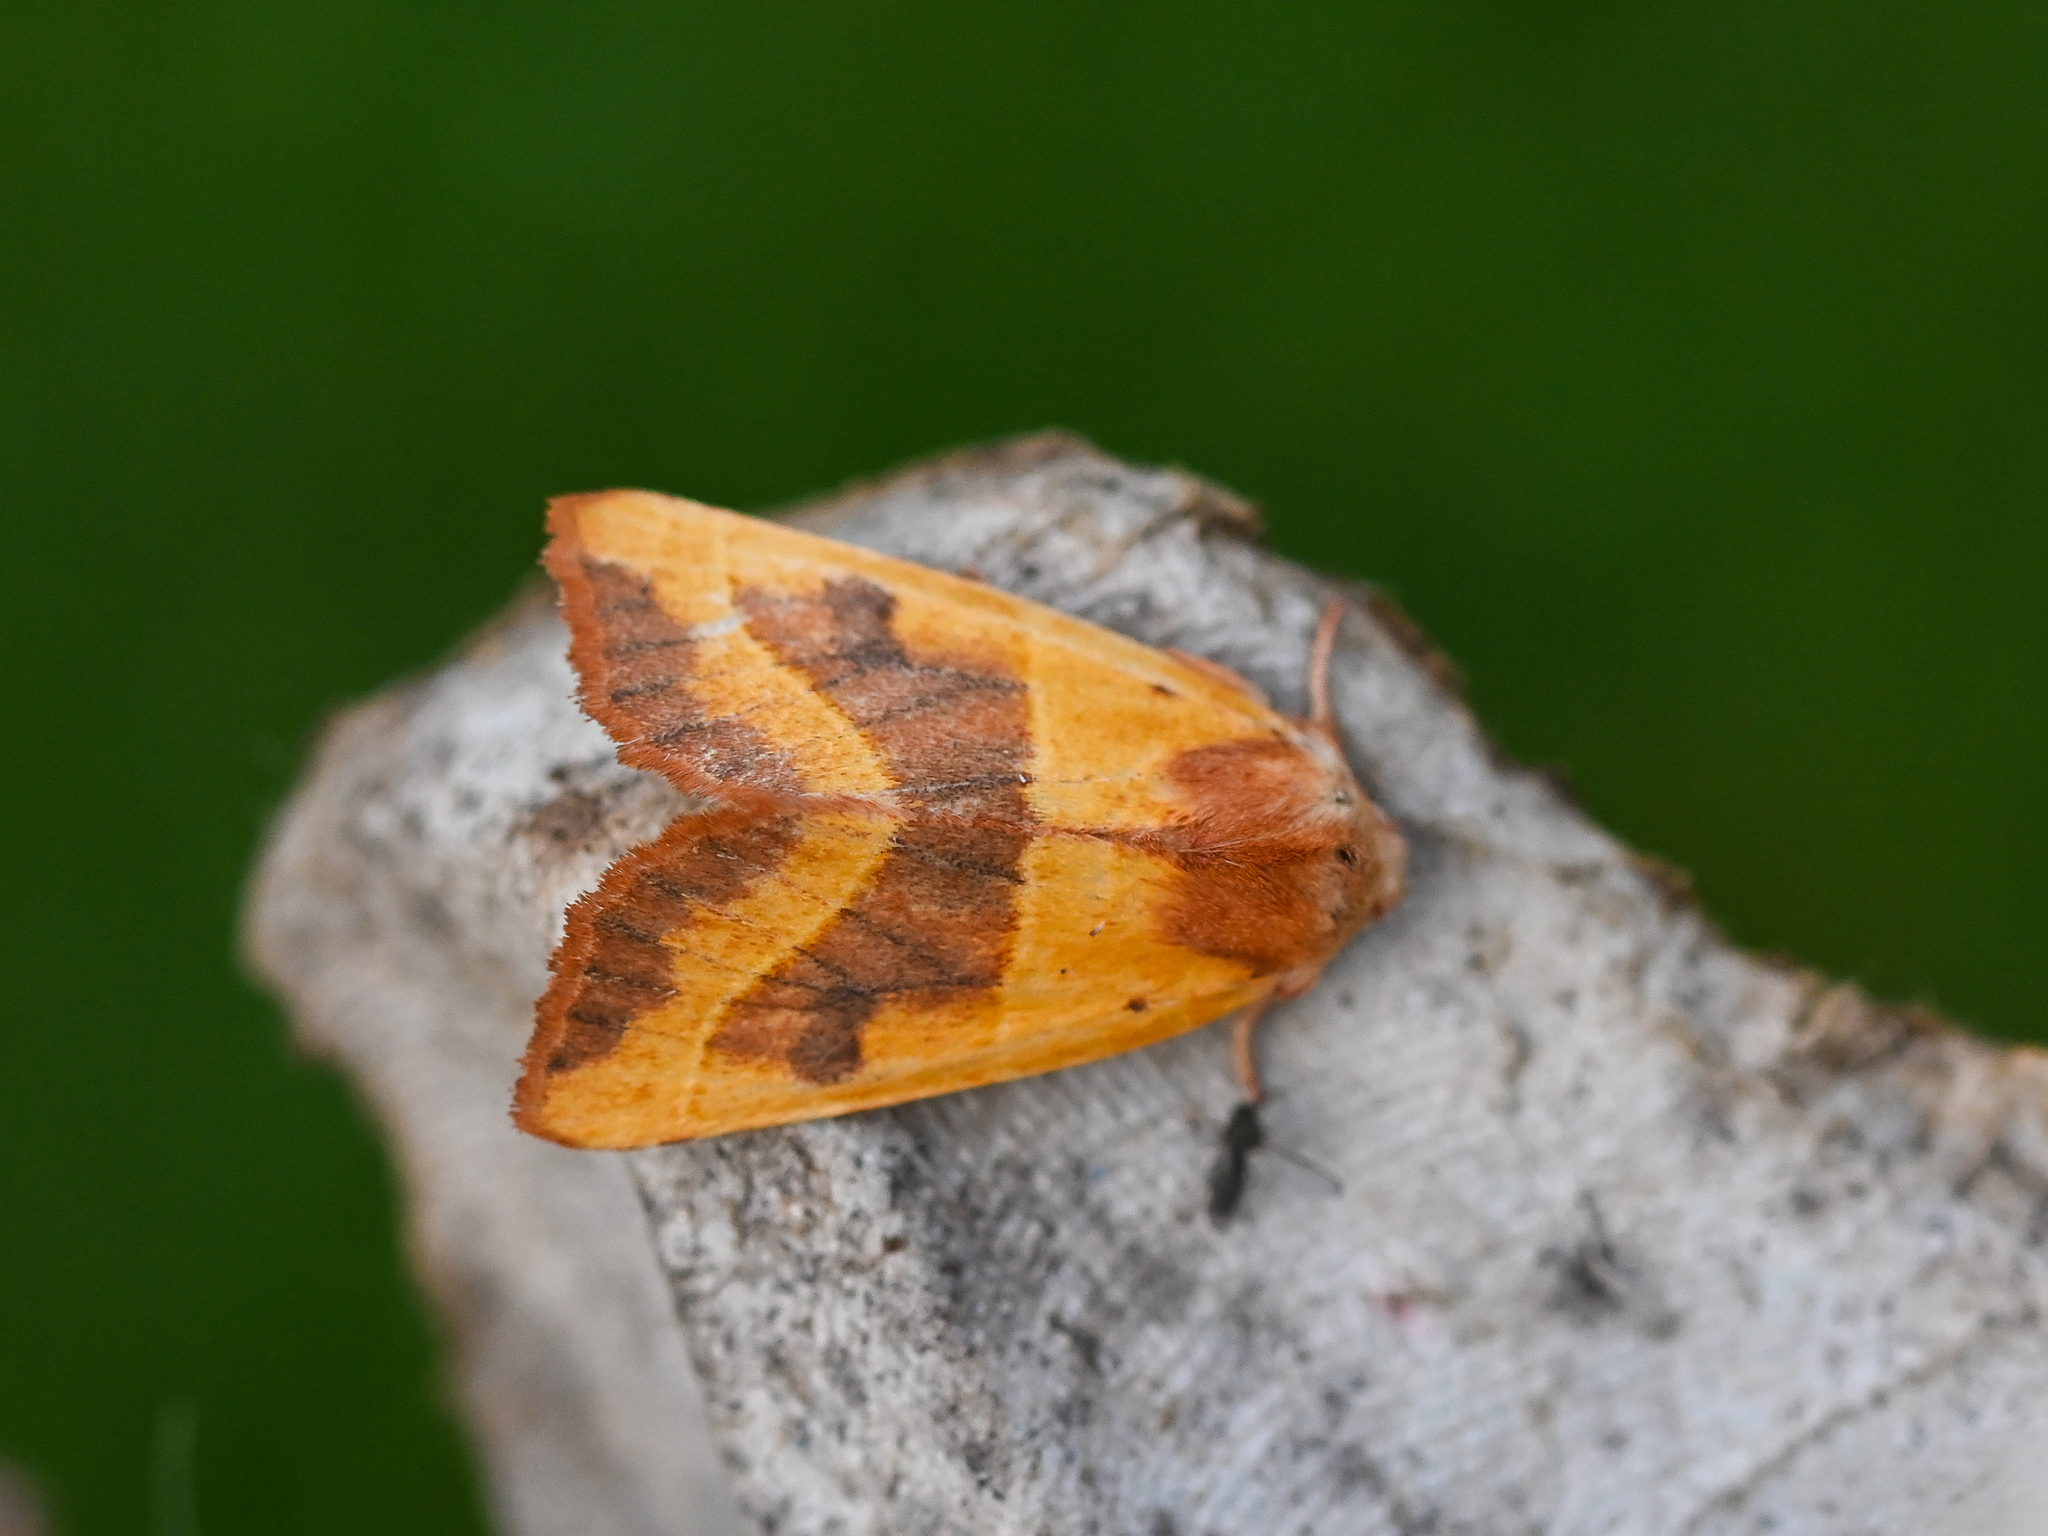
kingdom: Animalia
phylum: Arthropoda
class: Insecta
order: Lepidoptera
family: Noctuidae
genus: Atethmia
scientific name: Atethmia centrago
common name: Centre-barred sallow
